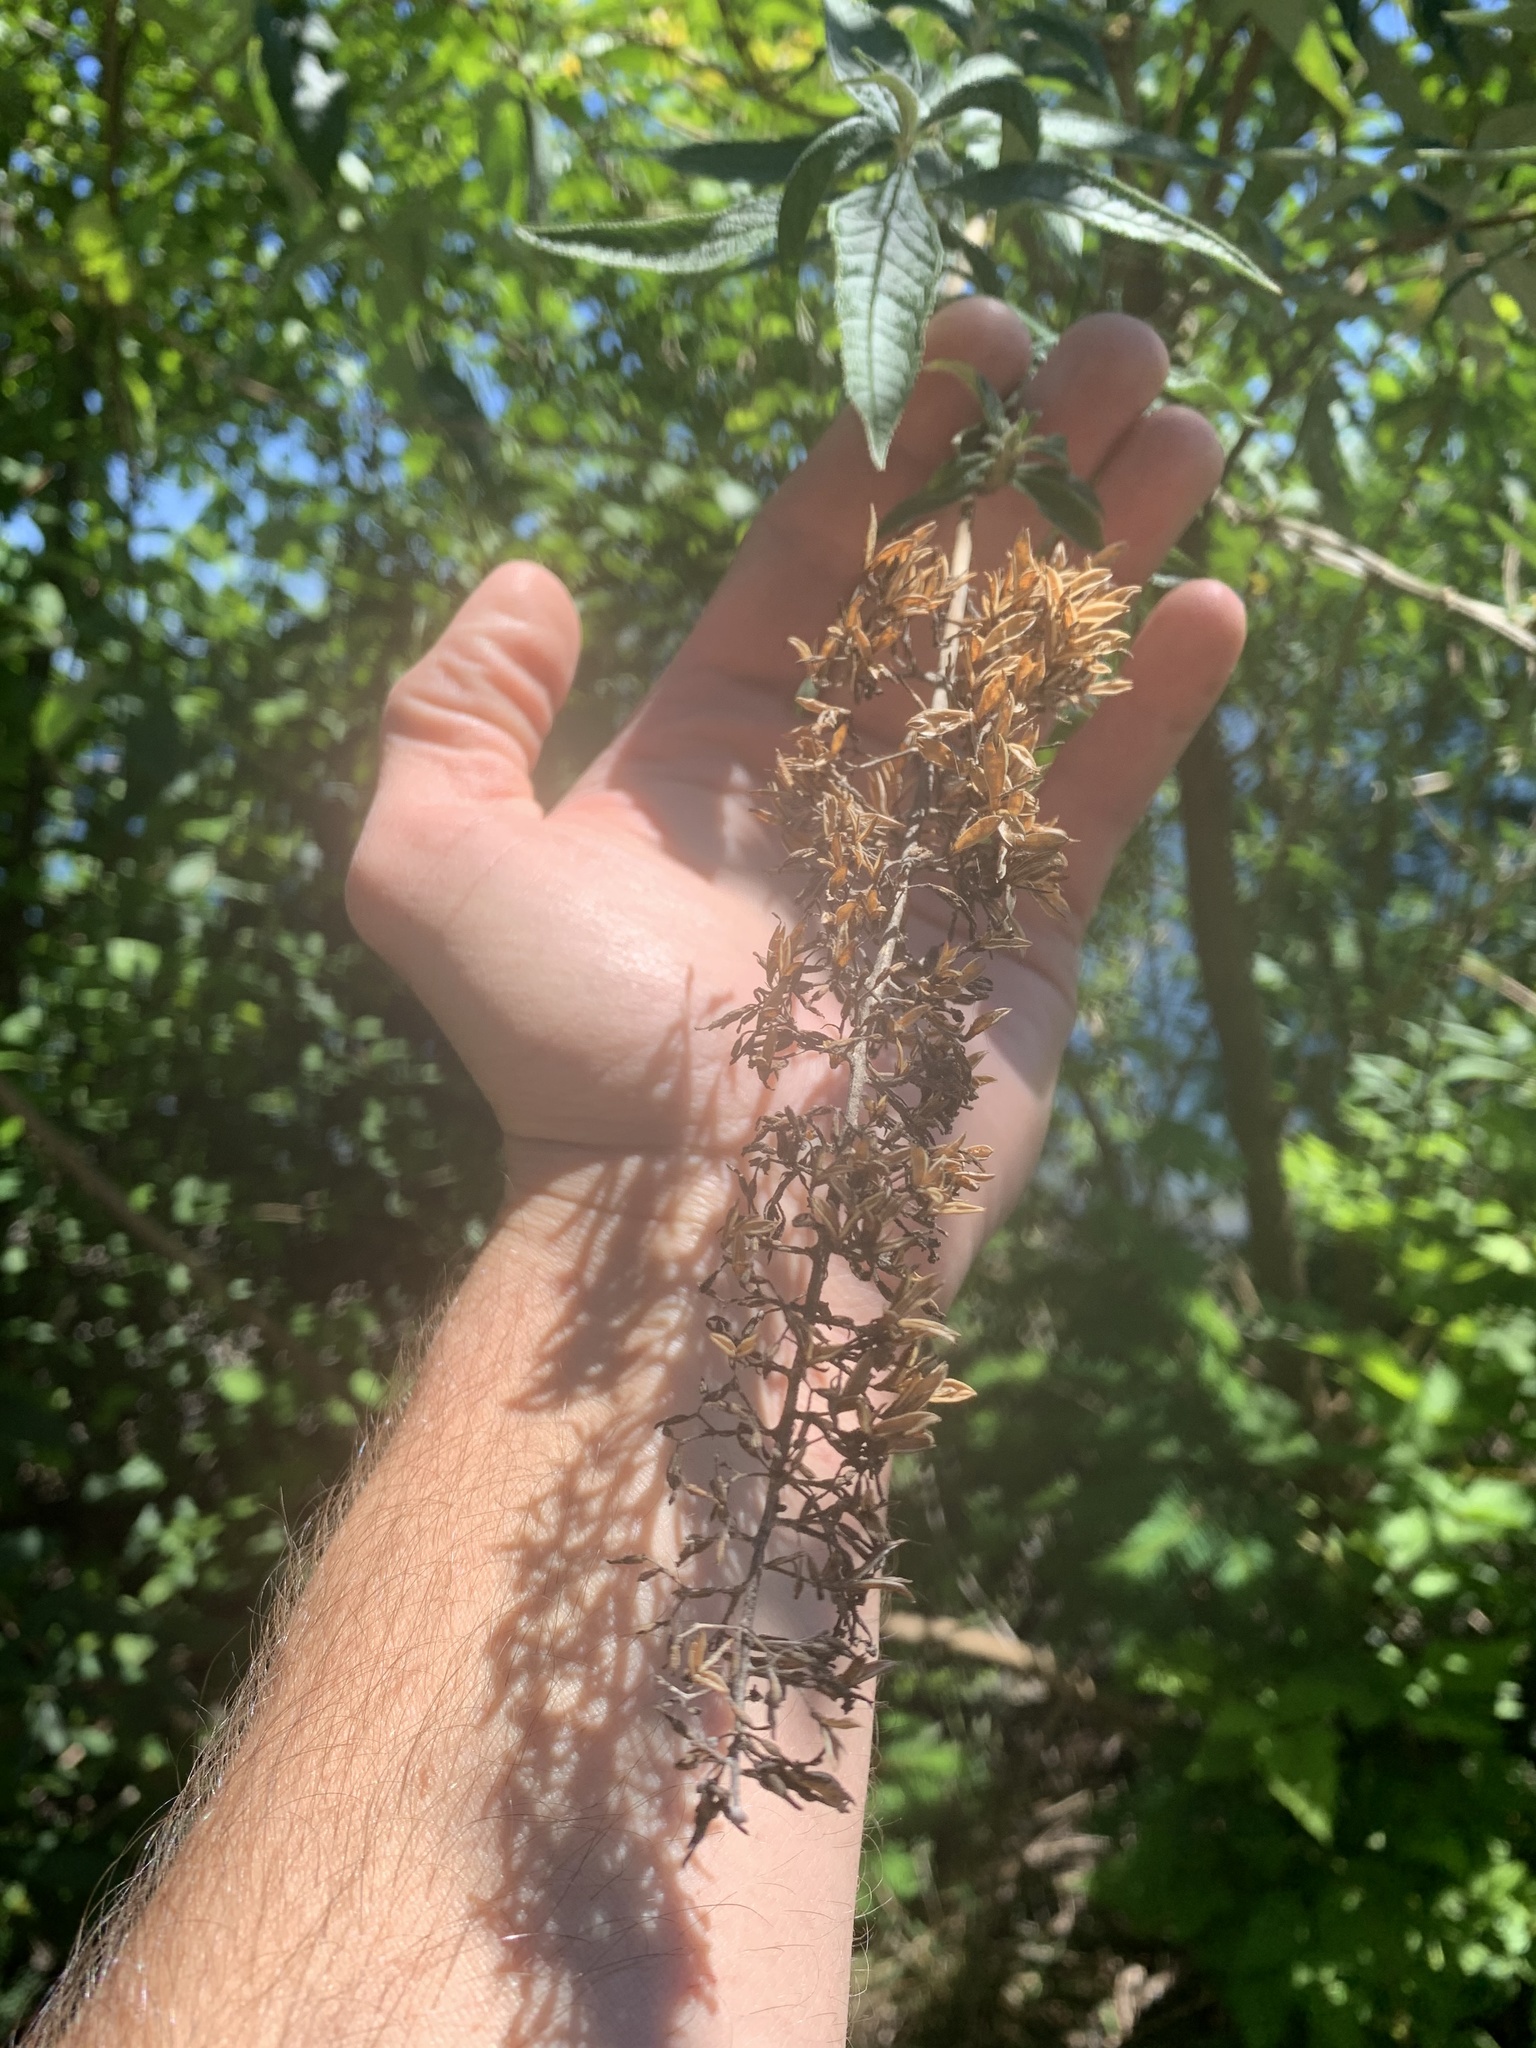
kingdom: Plantae
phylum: Tracheophyta
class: Magnoliopsida
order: Lamiales
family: Scrophulariaceae
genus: Buddleja
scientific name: Buddleja davidii
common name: Butterfly-bush
